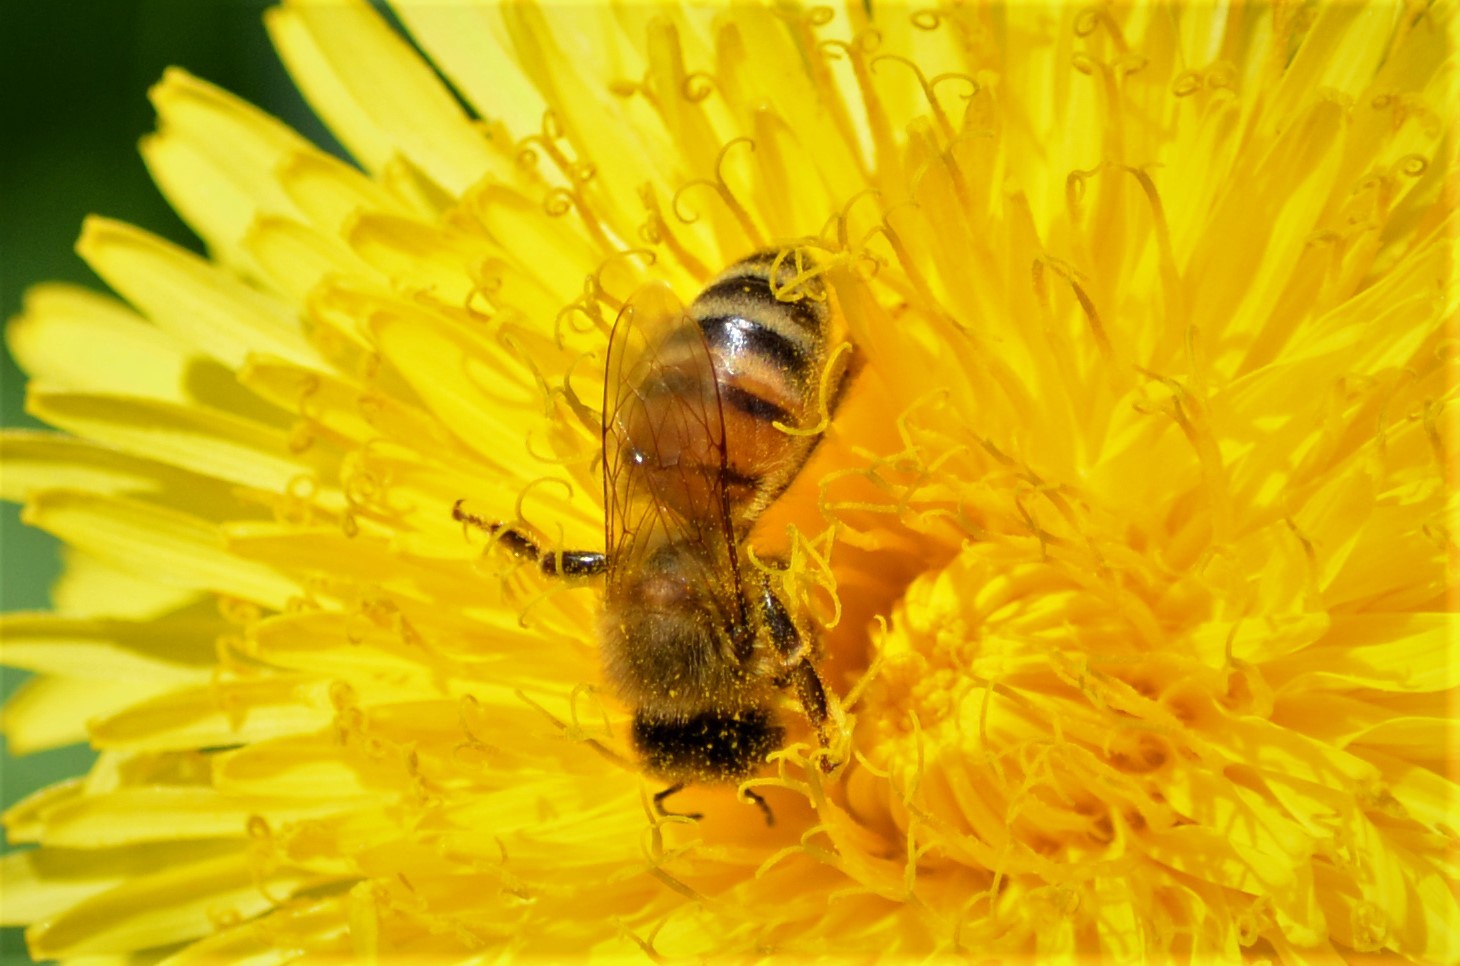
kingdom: Animalia
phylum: Arthropoda
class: Insecta
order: Hymenoptera
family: Apidae
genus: Apis
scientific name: Apis mellifera
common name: Honey bee
